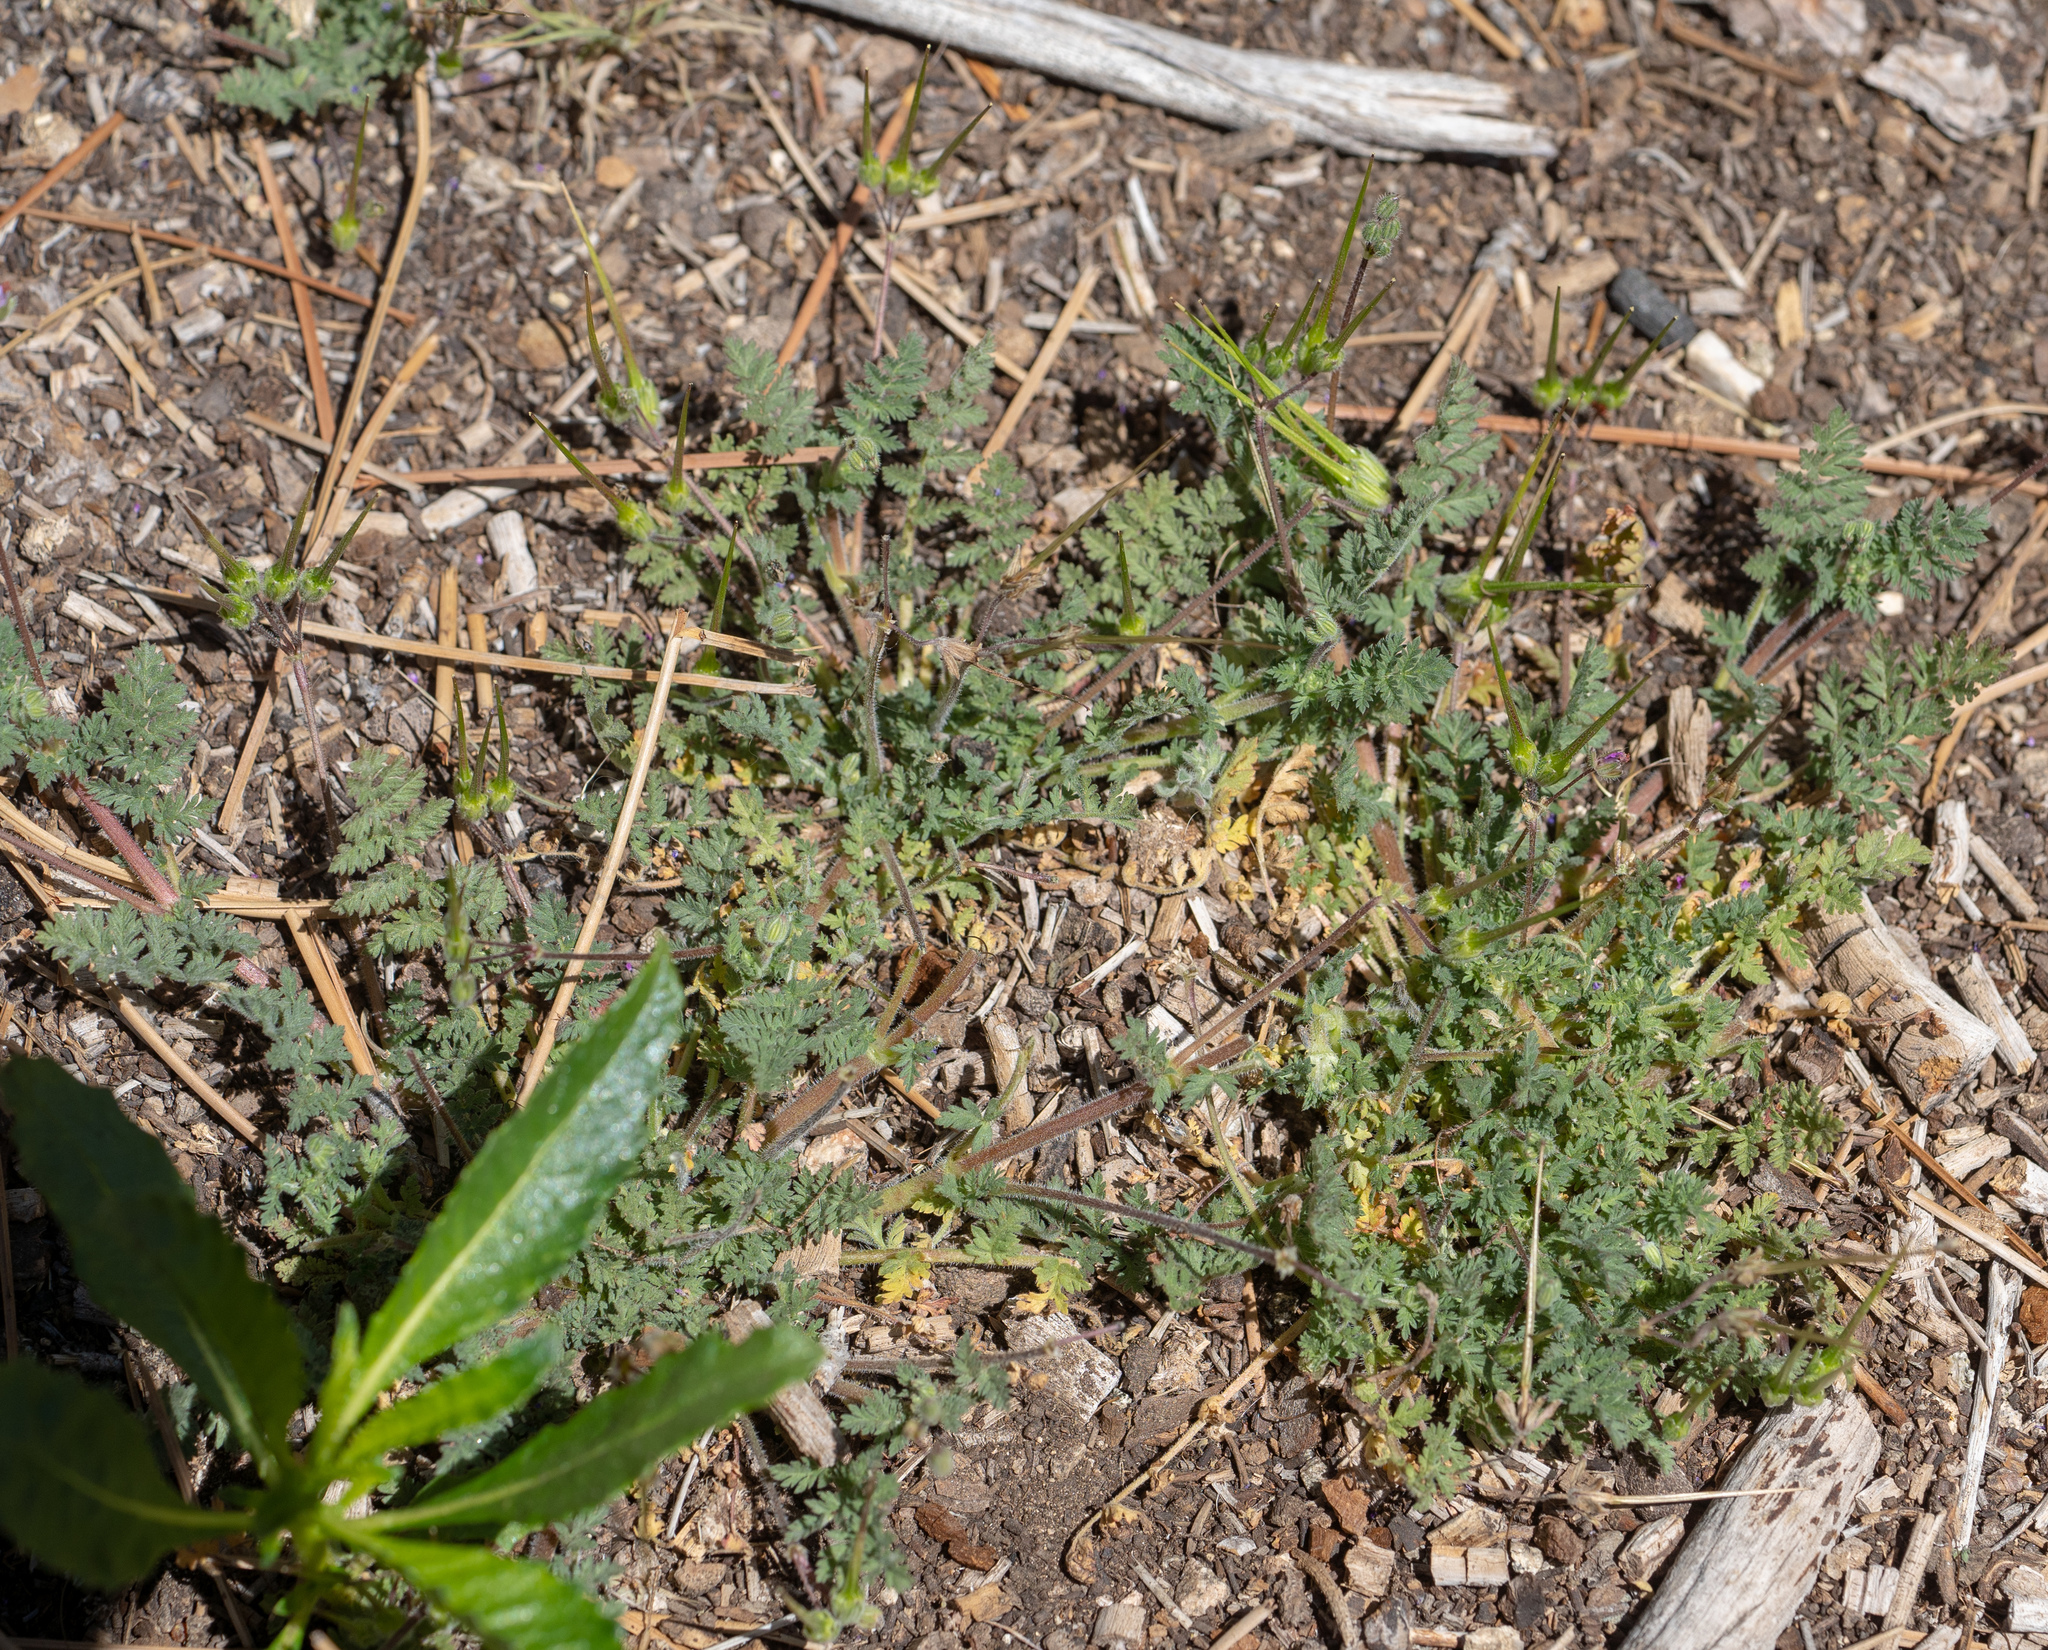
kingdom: Plantae
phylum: Tracheophyta
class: Magnoliopsida
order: Geraniales
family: Geraniaceae
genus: Erodium
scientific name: Erodium cicutarium
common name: Common stork's-bill
